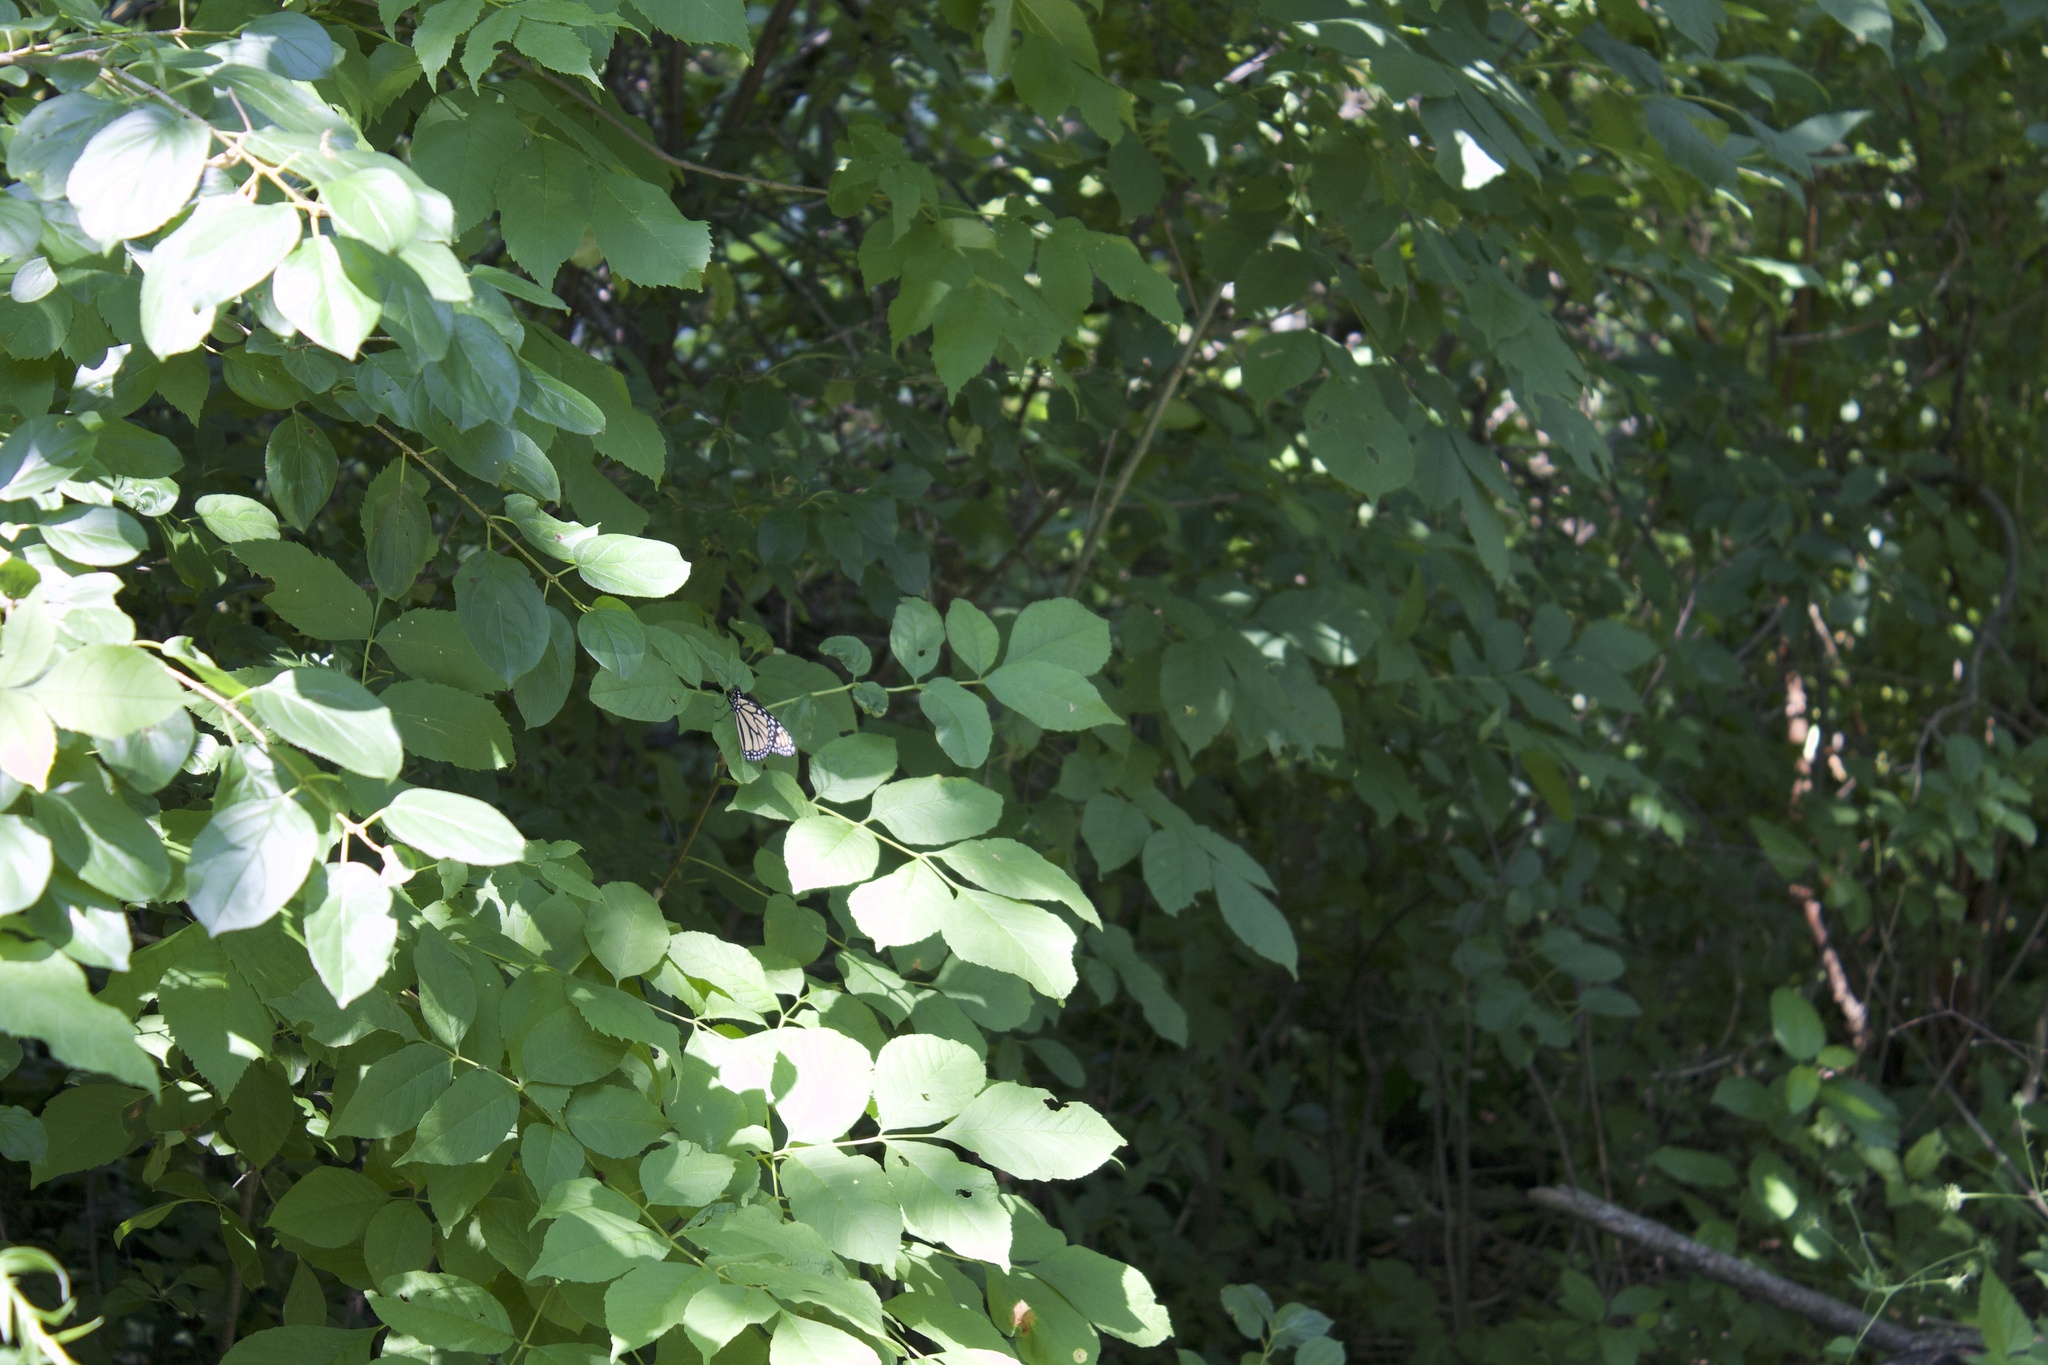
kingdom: Animalia
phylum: Arthropoda
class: Insecta
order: Lepidoptera
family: Nymphalidae
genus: Danaus
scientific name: Danaus plexippus
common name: Monarch
